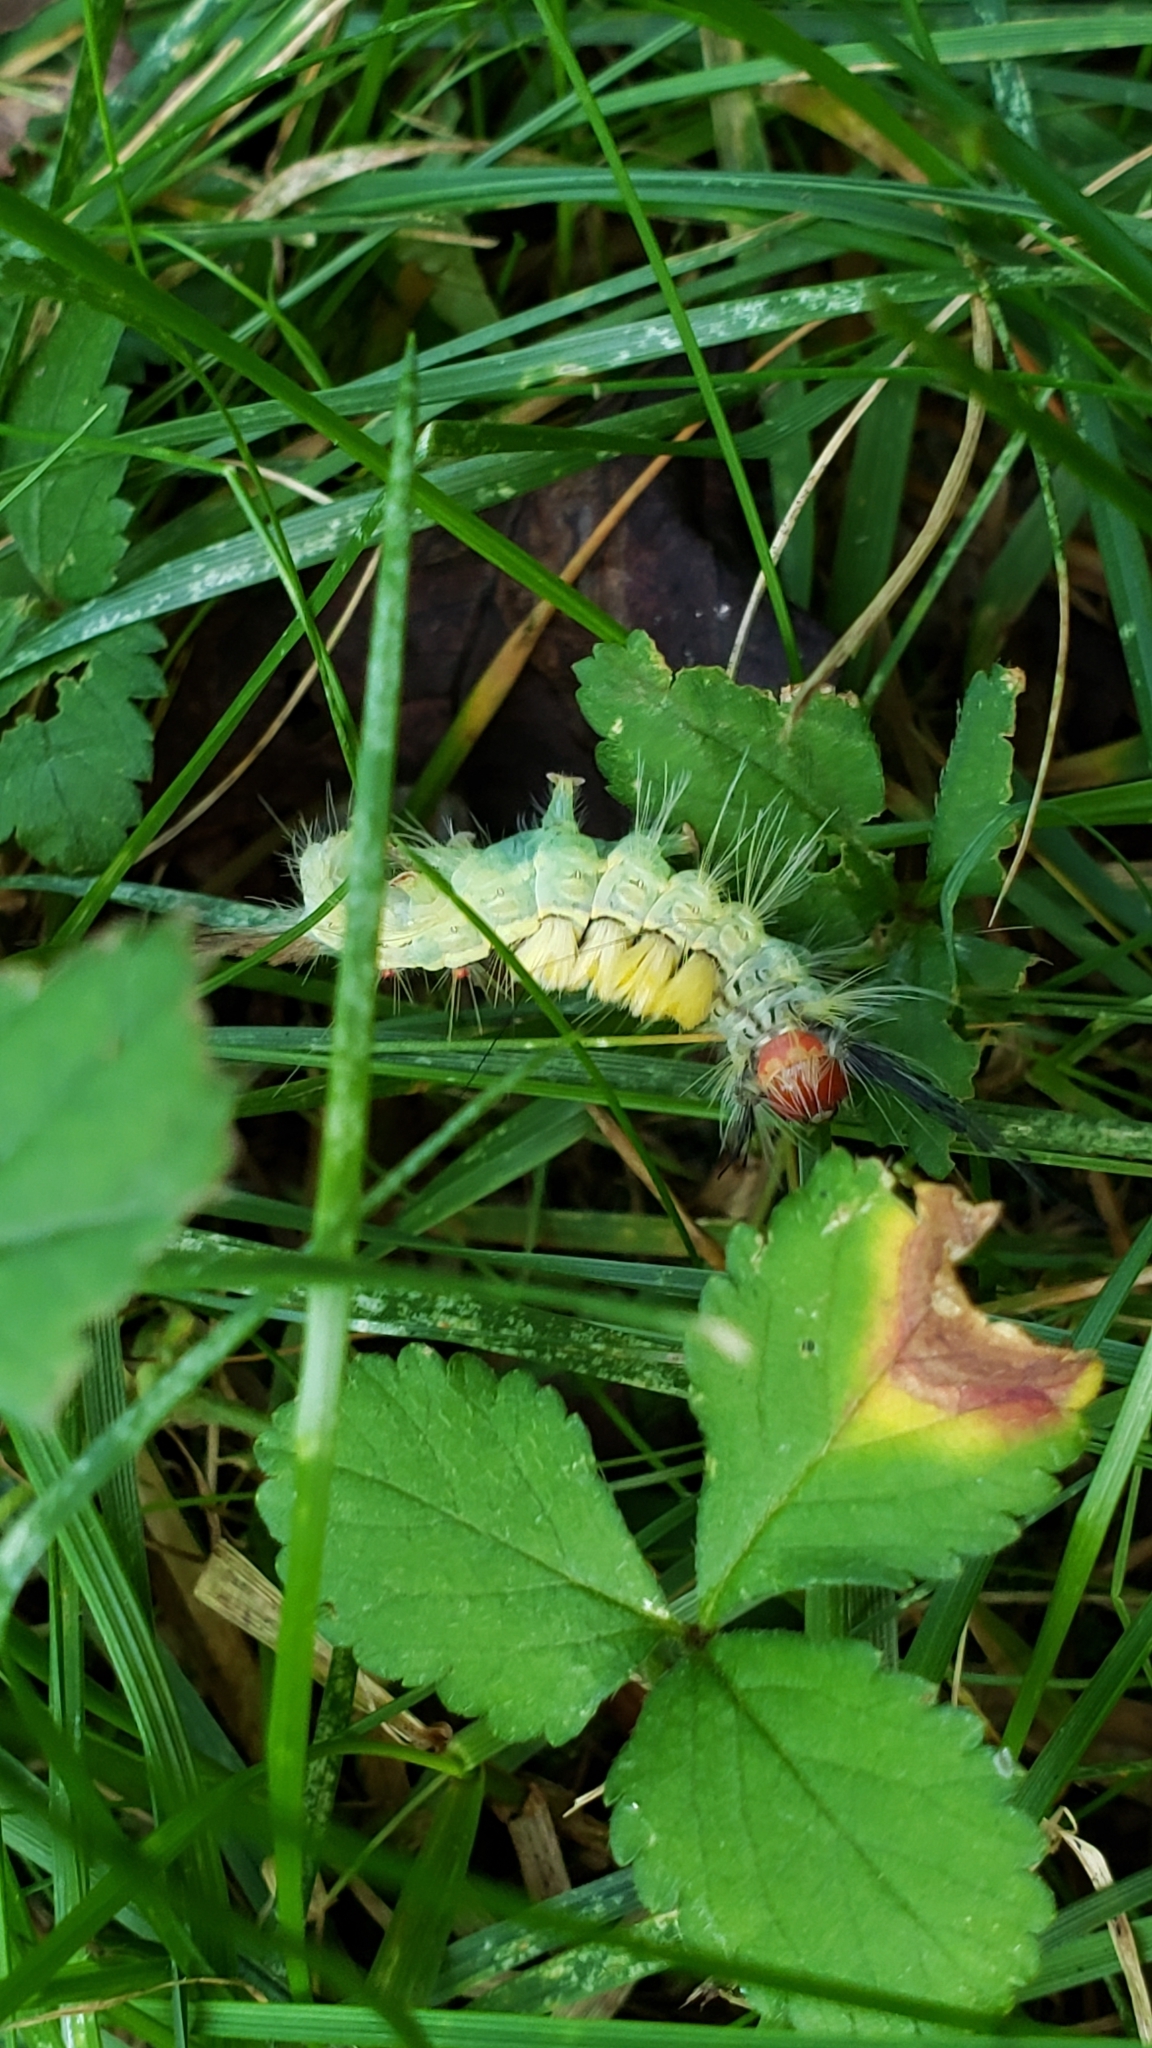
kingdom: Animalia
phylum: Arthropoda
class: Insecta
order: Lepidoptera
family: Erebidae
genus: Orgyia
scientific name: Orgyia leucostigma
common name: White-marked tussock moth
